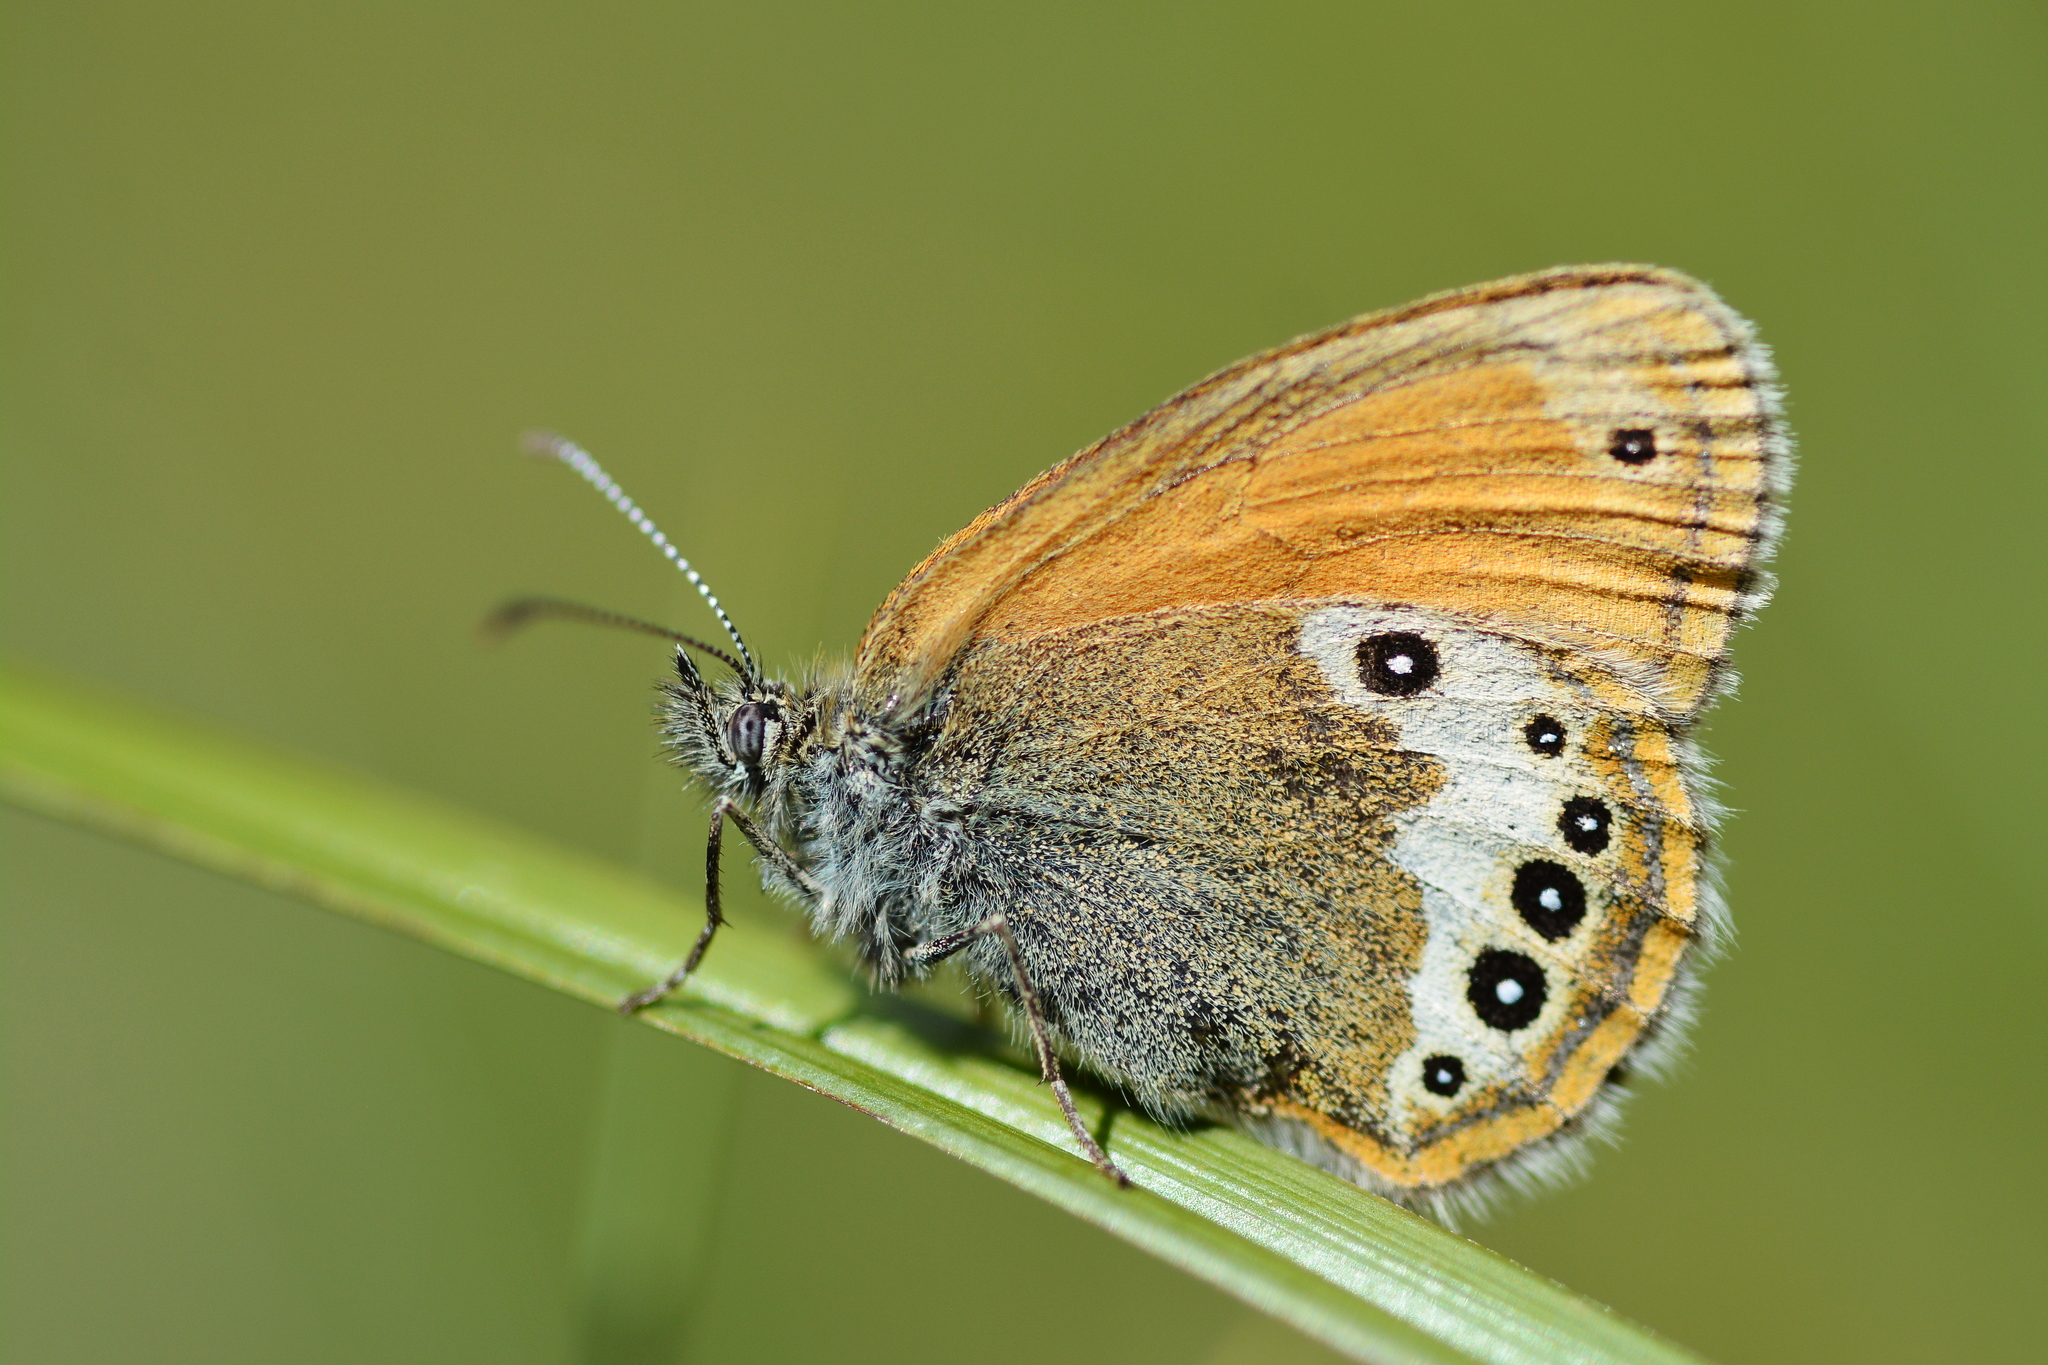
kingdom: Animalia
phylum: Arthropoda
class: Insecta
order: Lepidoptera
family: Nymphalidae
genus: Coenonympha
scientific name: Coenonympha
